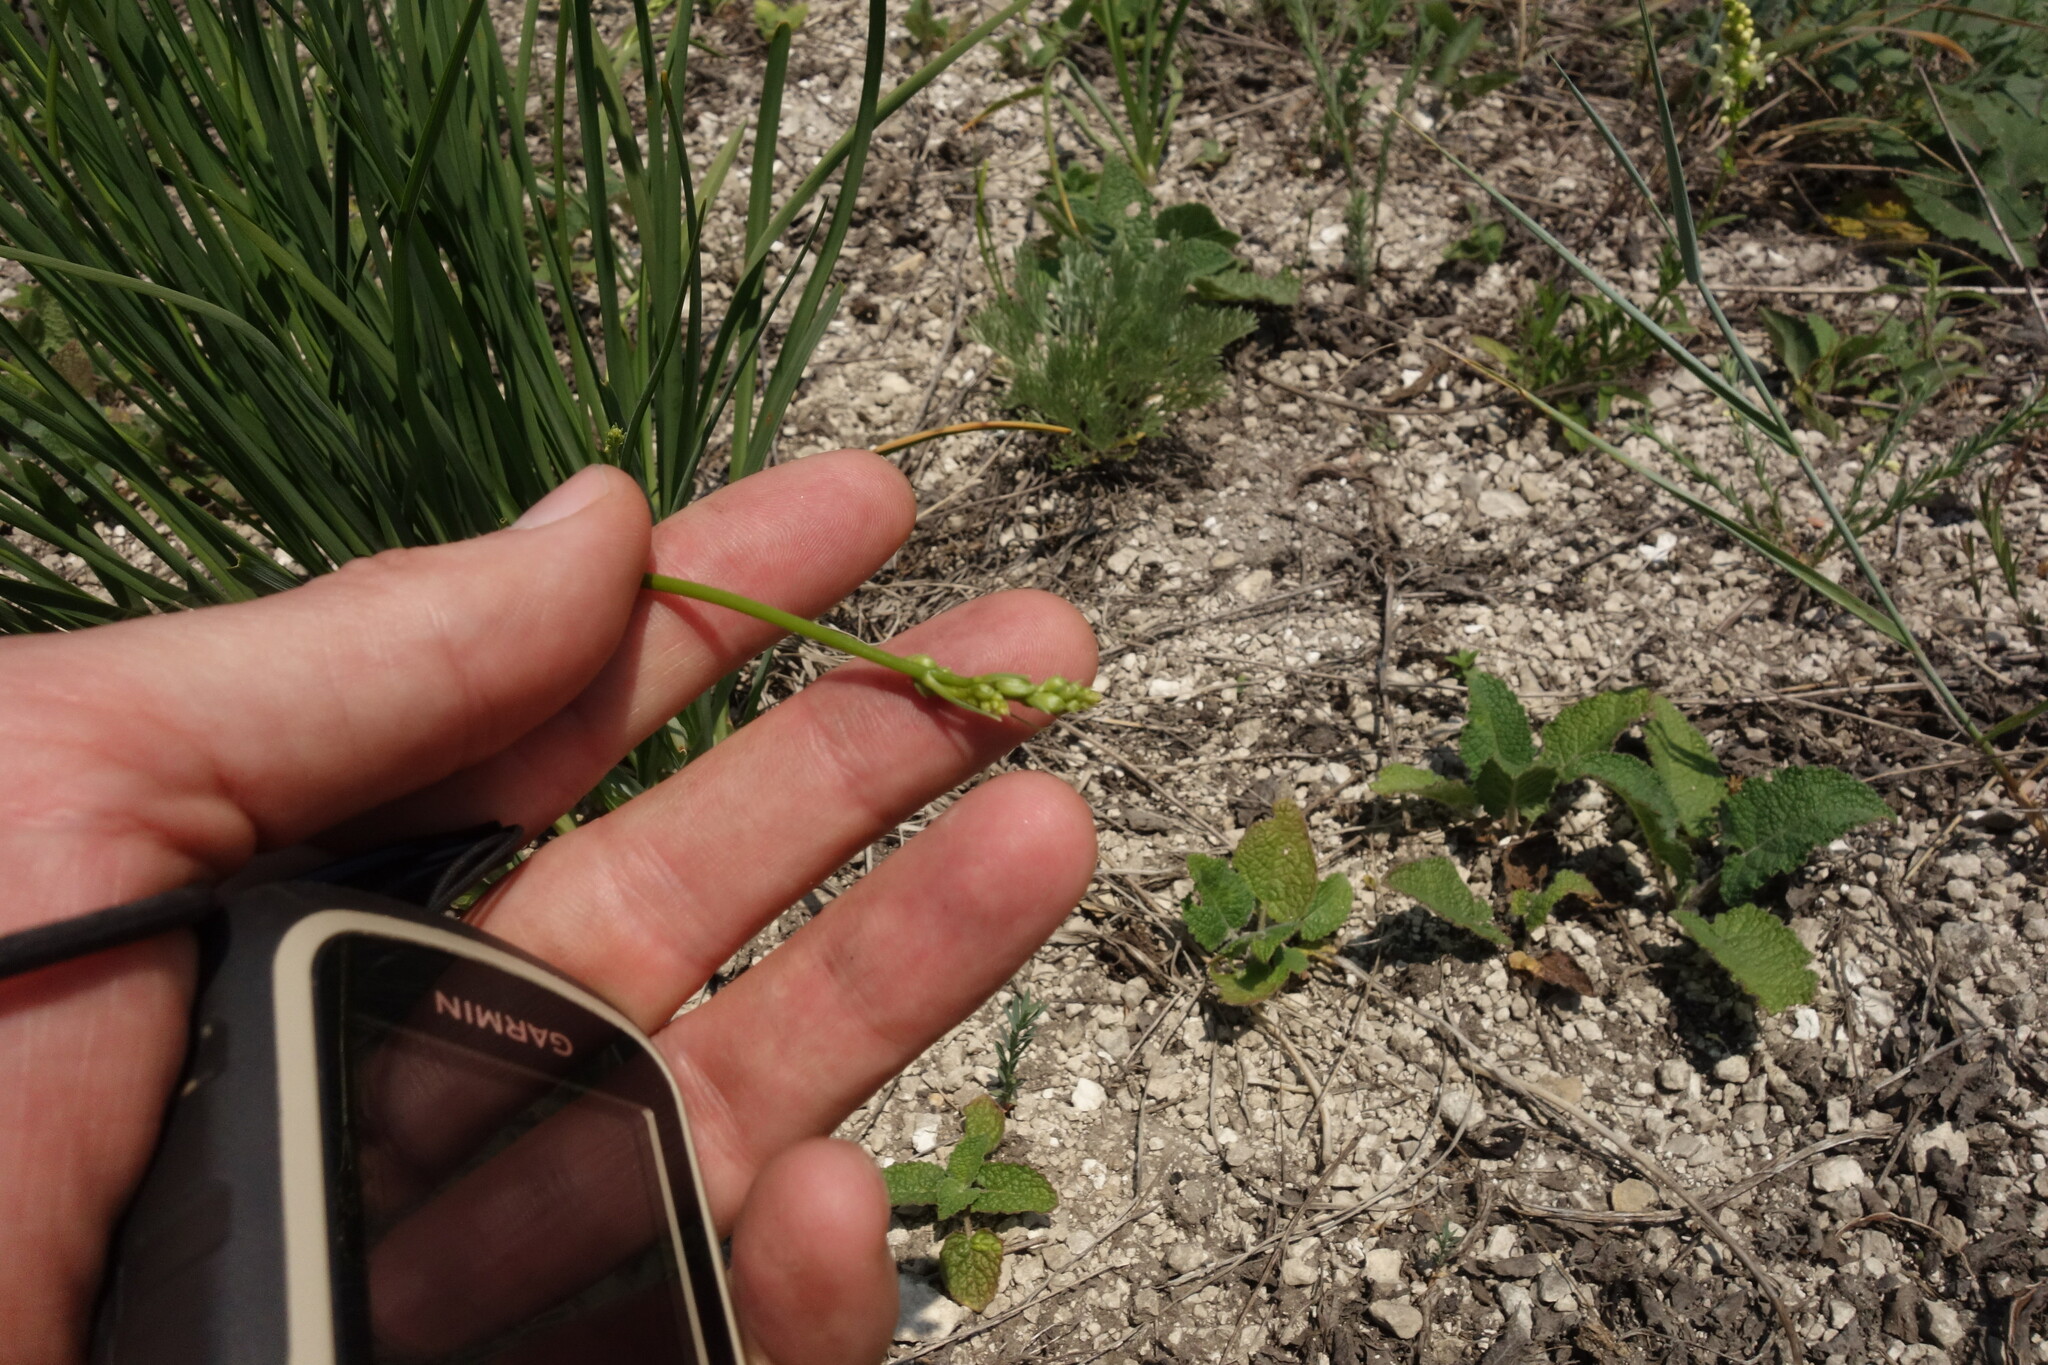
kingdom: Plantae
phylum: Tracheophyta
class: Liliopsida
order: Asparagales
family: Asparagaceae
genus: Anthericum
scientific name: Anthericum ramosum
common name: Branched st. bernard's-lily
